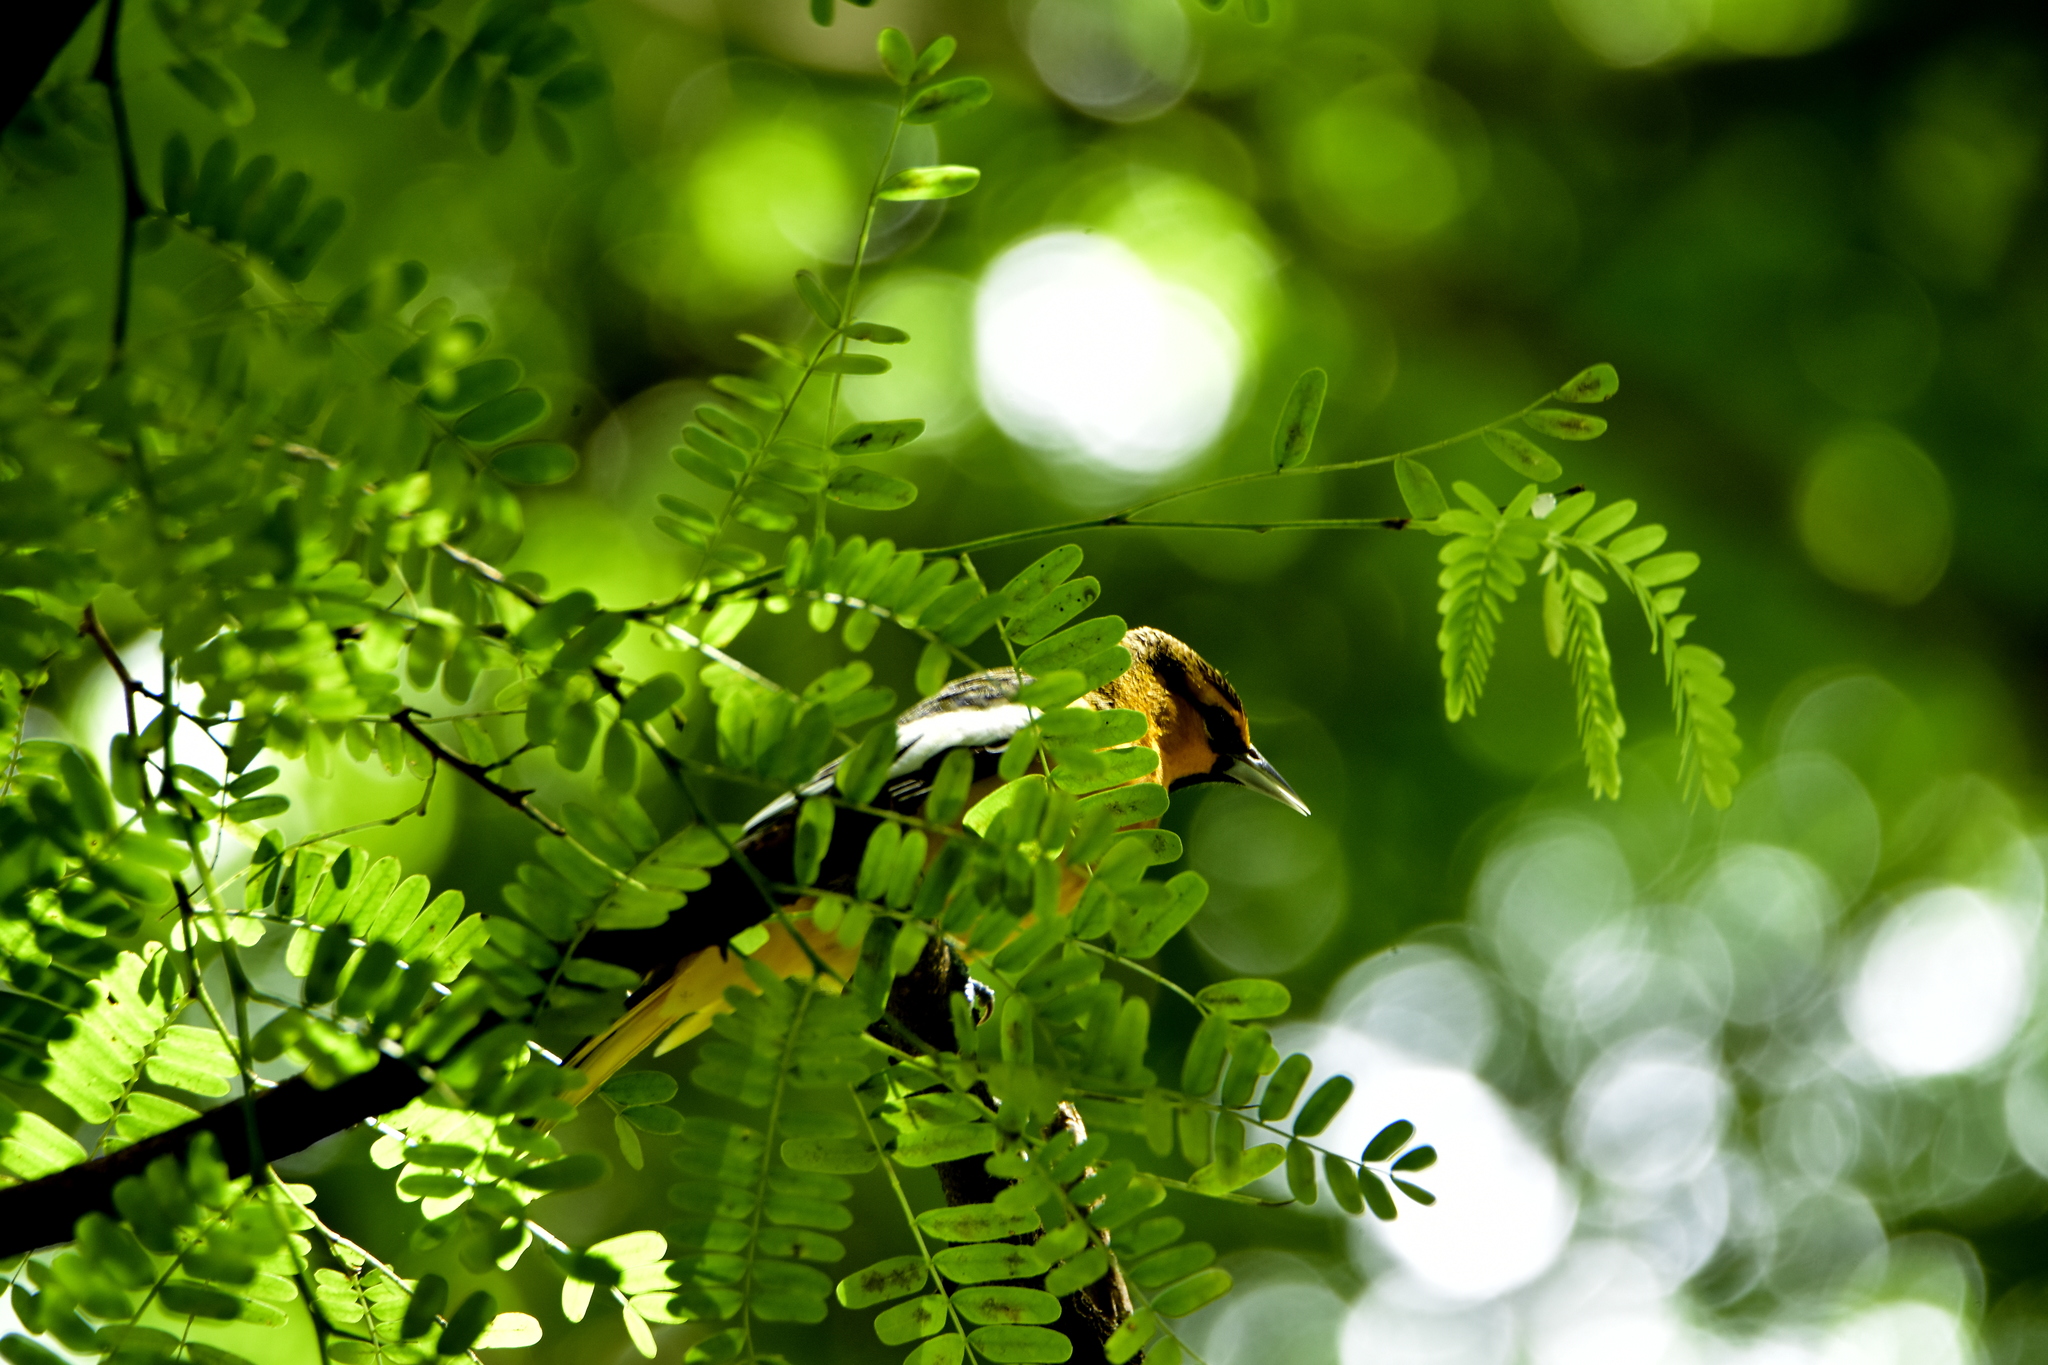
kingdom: Animalia
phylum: Chordata
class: Aves
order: Passeriformes
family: Icteridae
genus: Icterus
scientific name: Icterus bullockii
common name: Bullock's oriole
